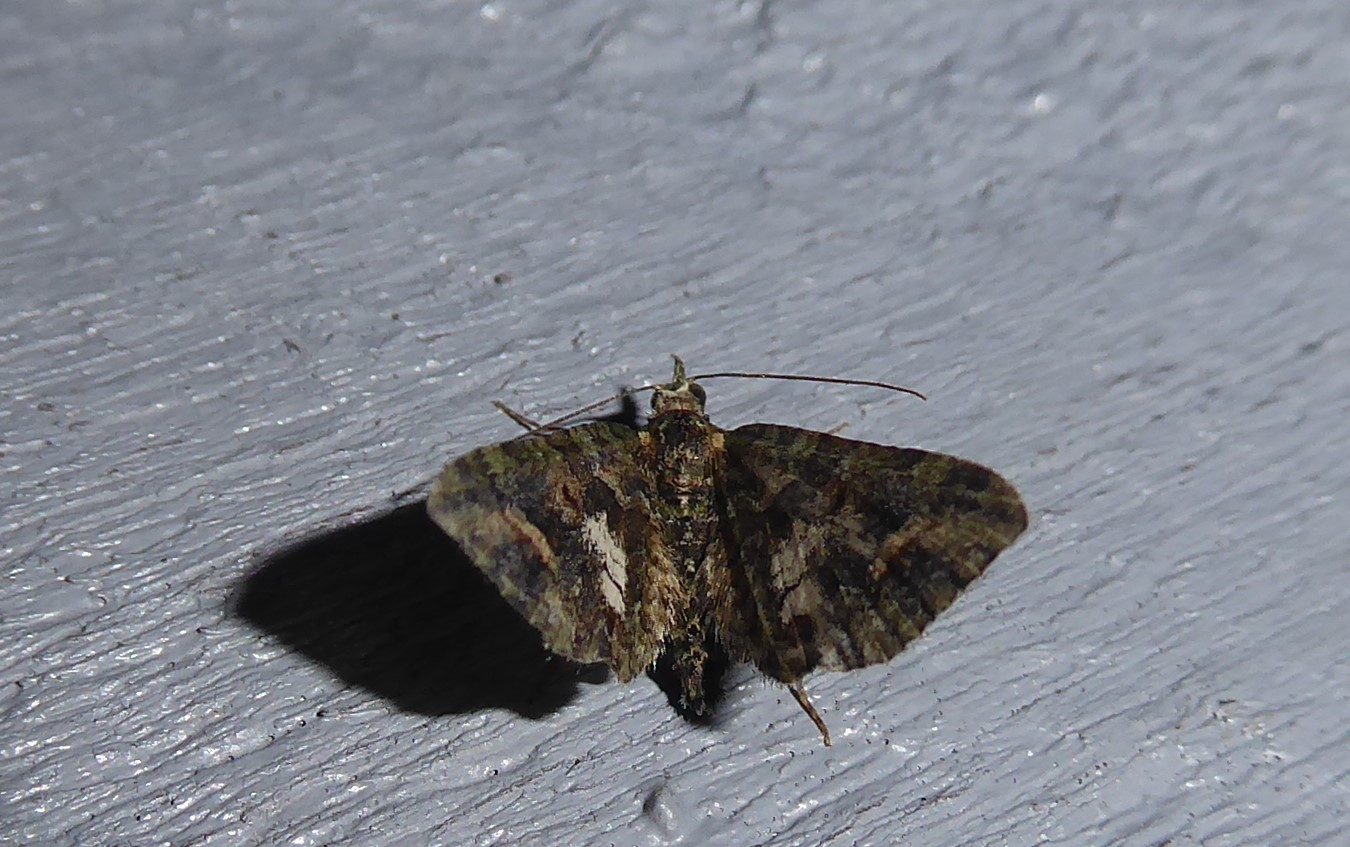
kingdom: Animalia
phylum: Arthropoda
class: Insecta
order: Lepidoptera
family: Geometridae
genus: Idaea
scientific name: Idaea mutanda
